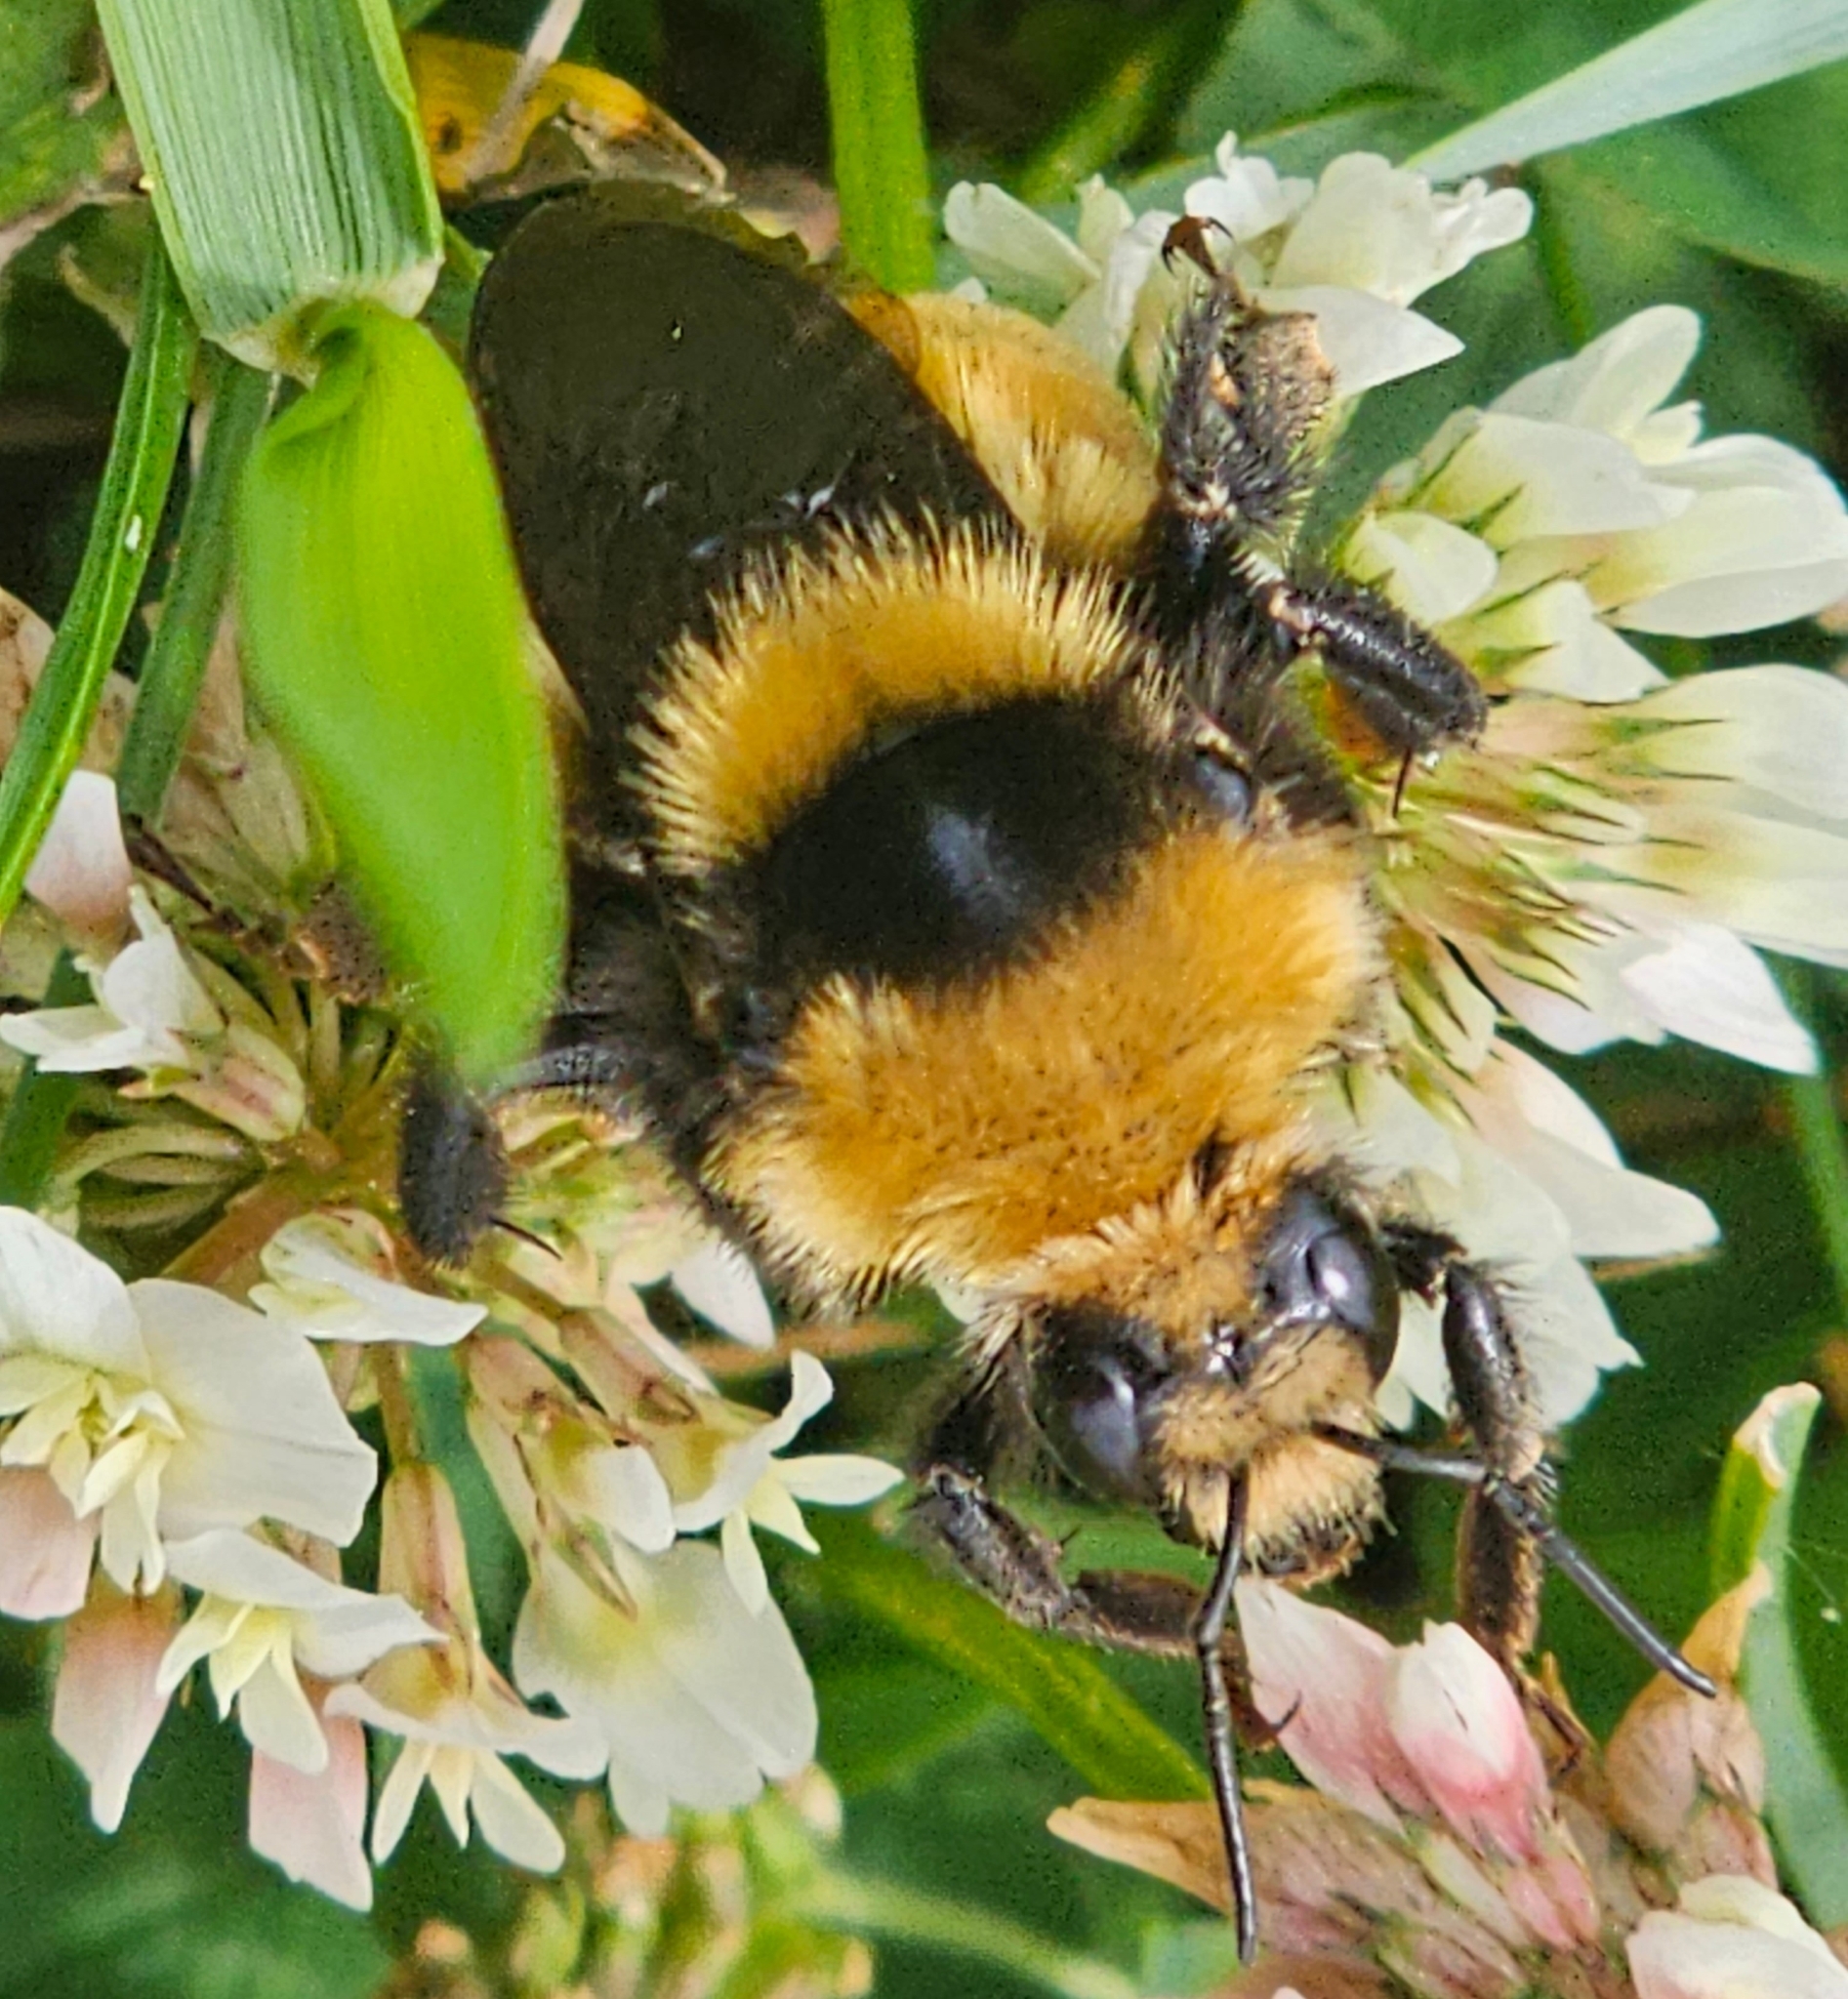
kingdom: Animalia
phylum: Arthropoda
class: Insecta
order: Hymenoptera
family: Apidae
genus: Bombus
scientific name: Bombus borealis
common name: Northern amber bumble bee
